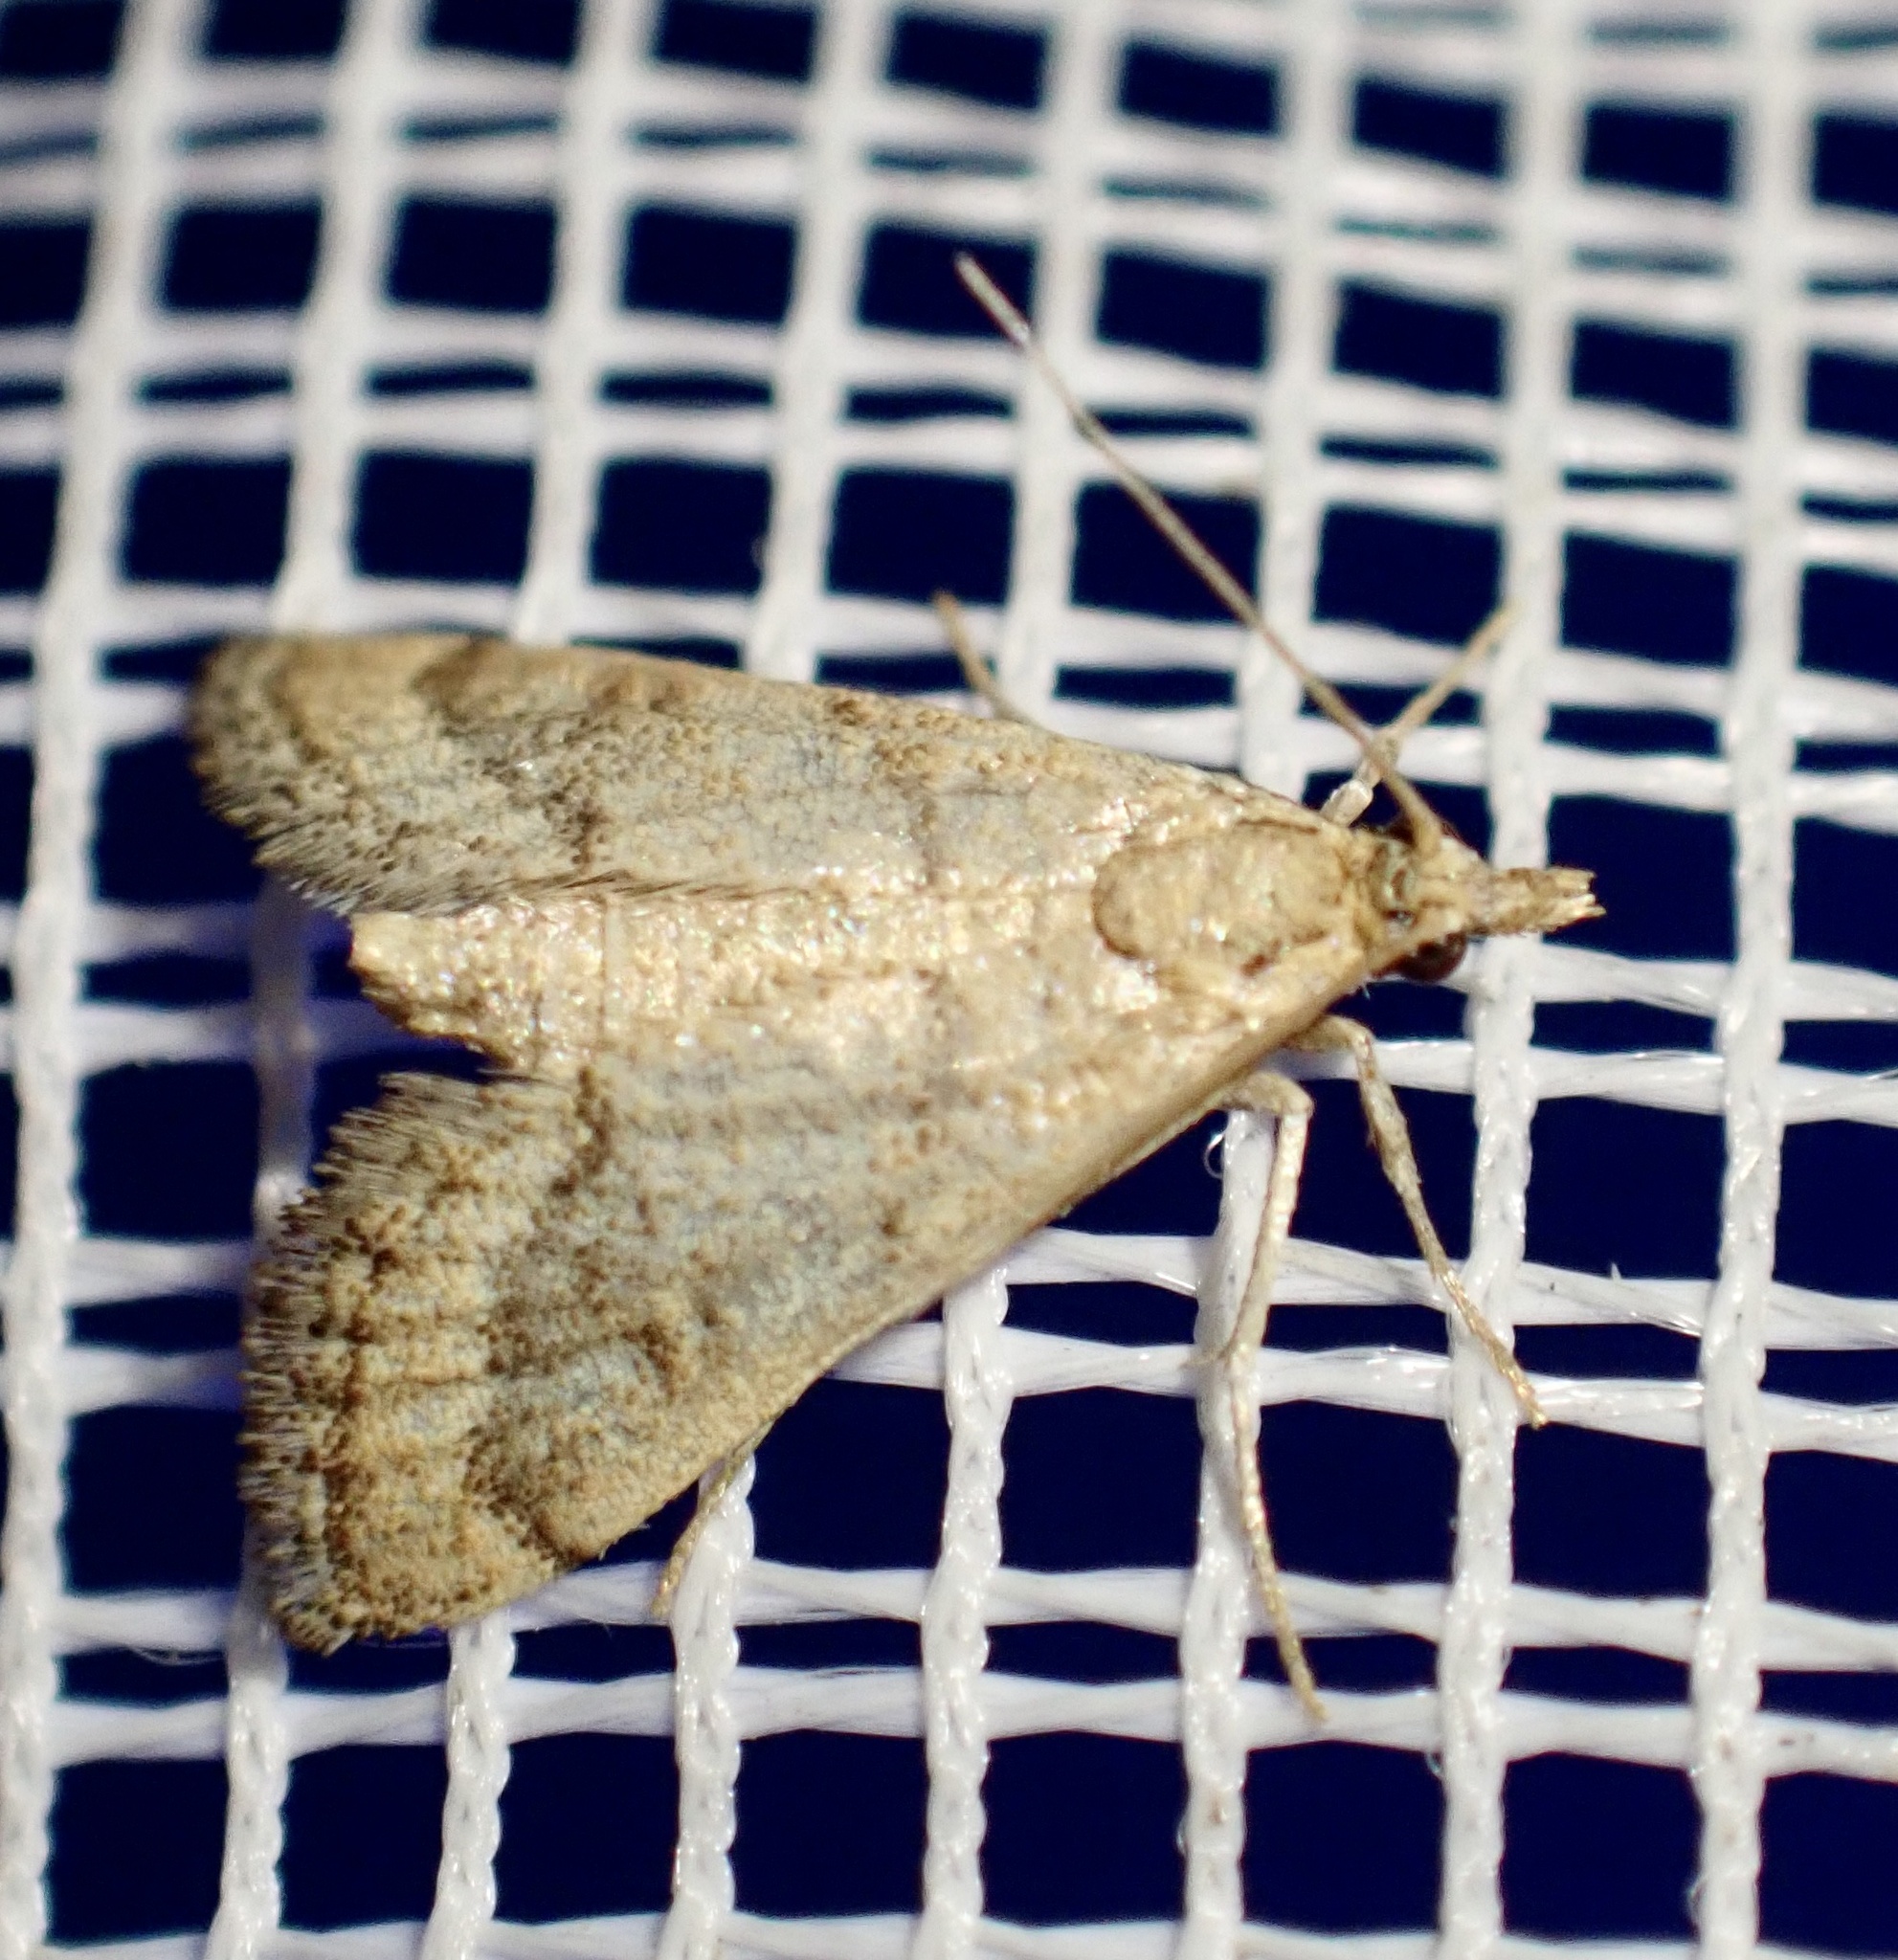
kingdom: Animalia
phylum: Arthropoda
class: Insecta
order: Lepidoptera
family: Crambidae
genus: Metasia
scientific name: Metasia ibericalis
